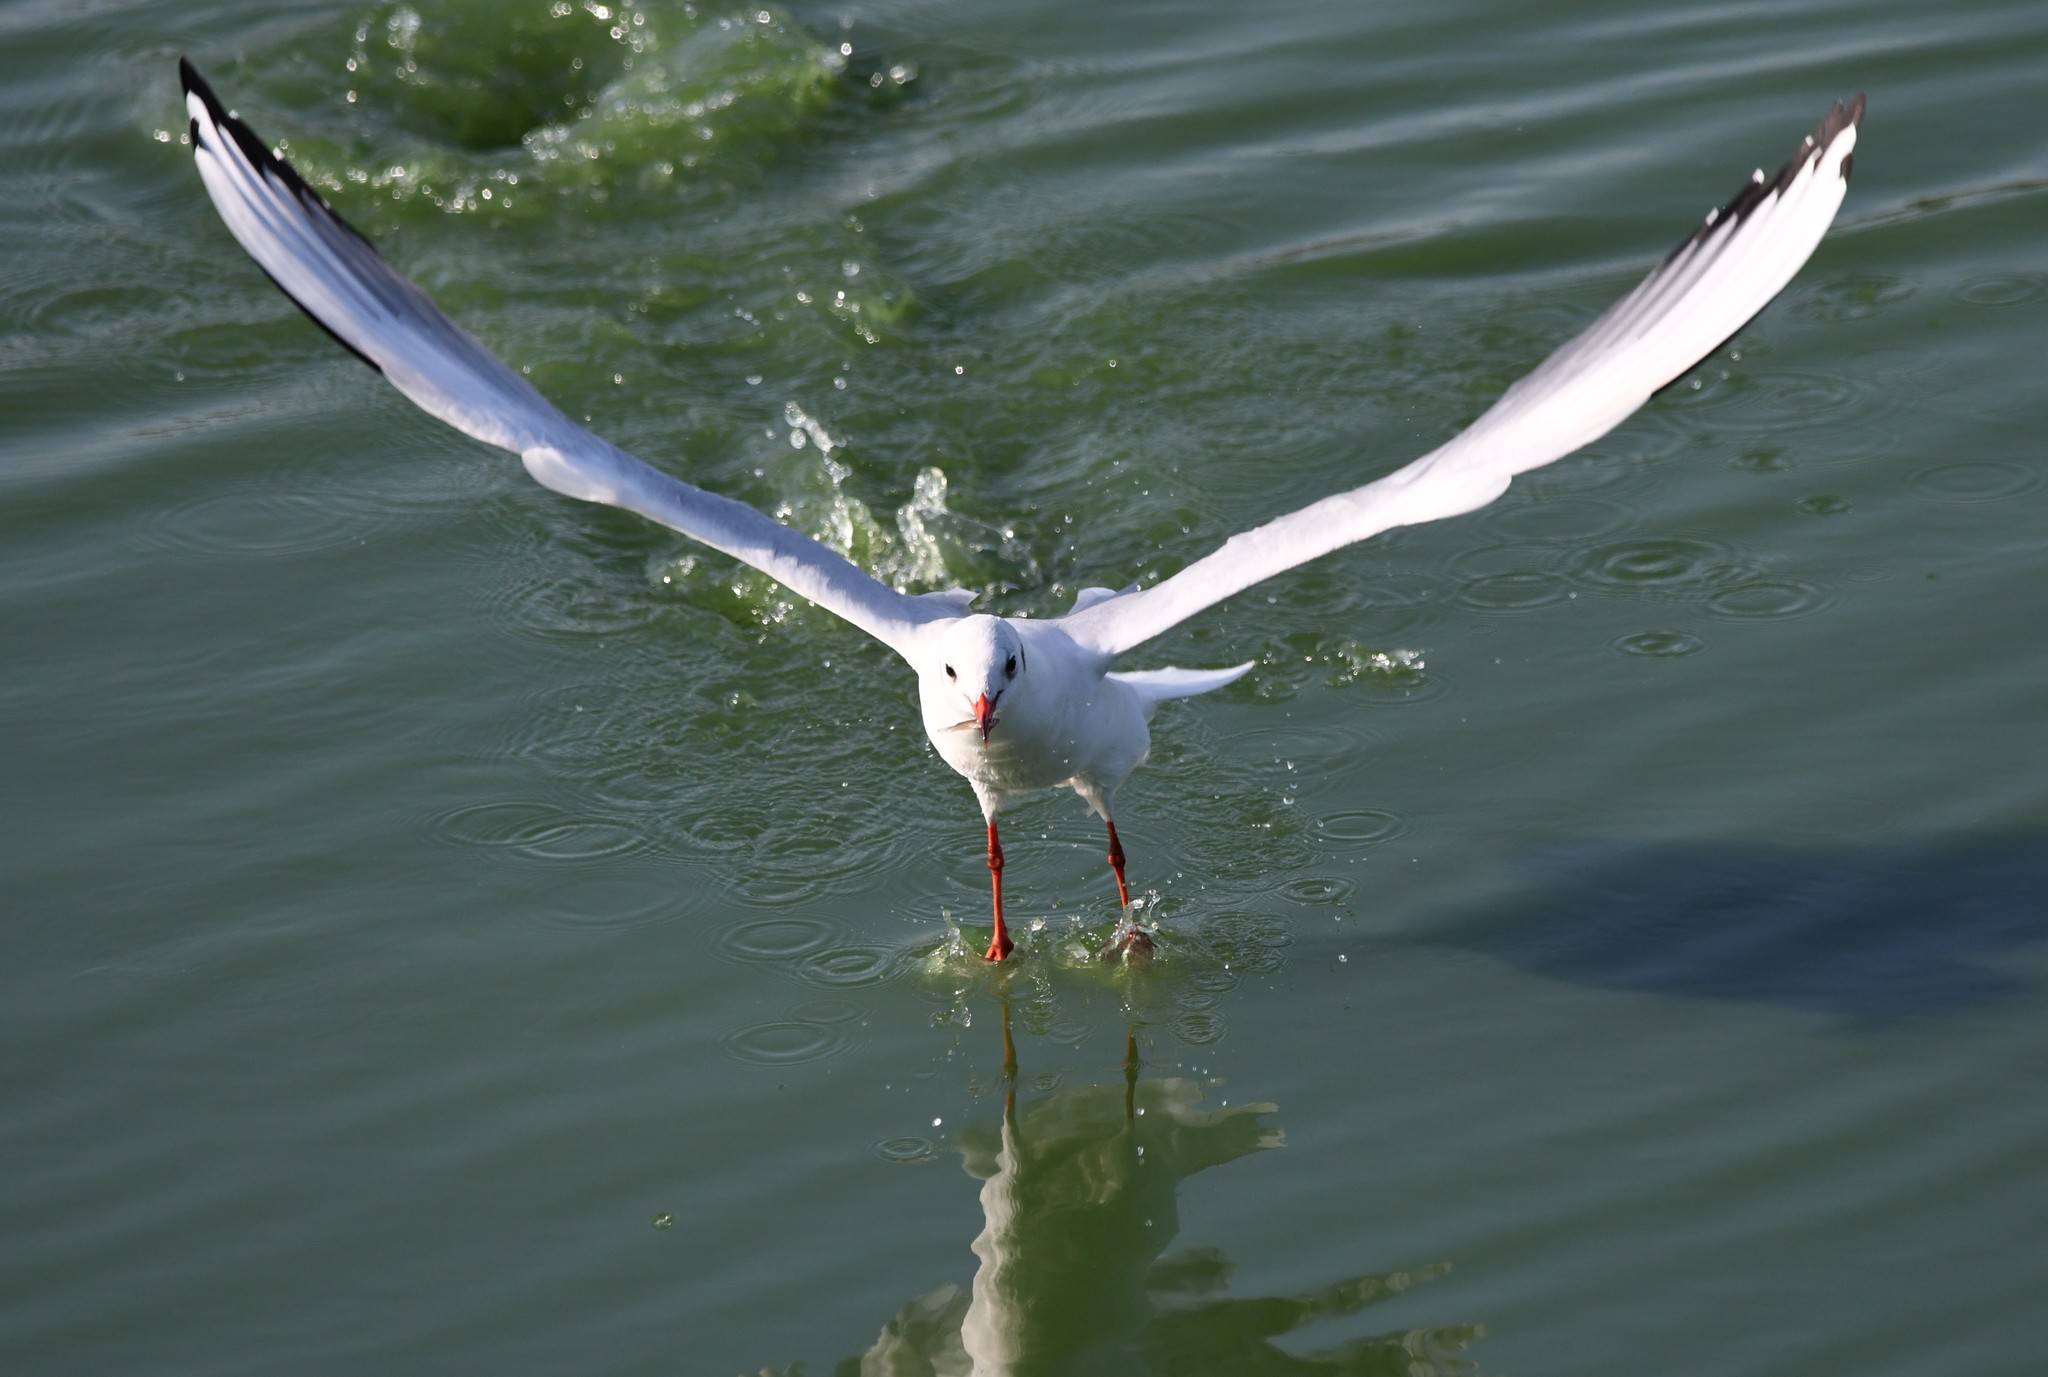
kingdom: Animalia
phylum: Chordata
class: Aves
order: Charadriiformes
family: Laridae
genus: Chroicocephalus
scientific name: Chroicocephalus ridibundus
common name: Black-headed gull
